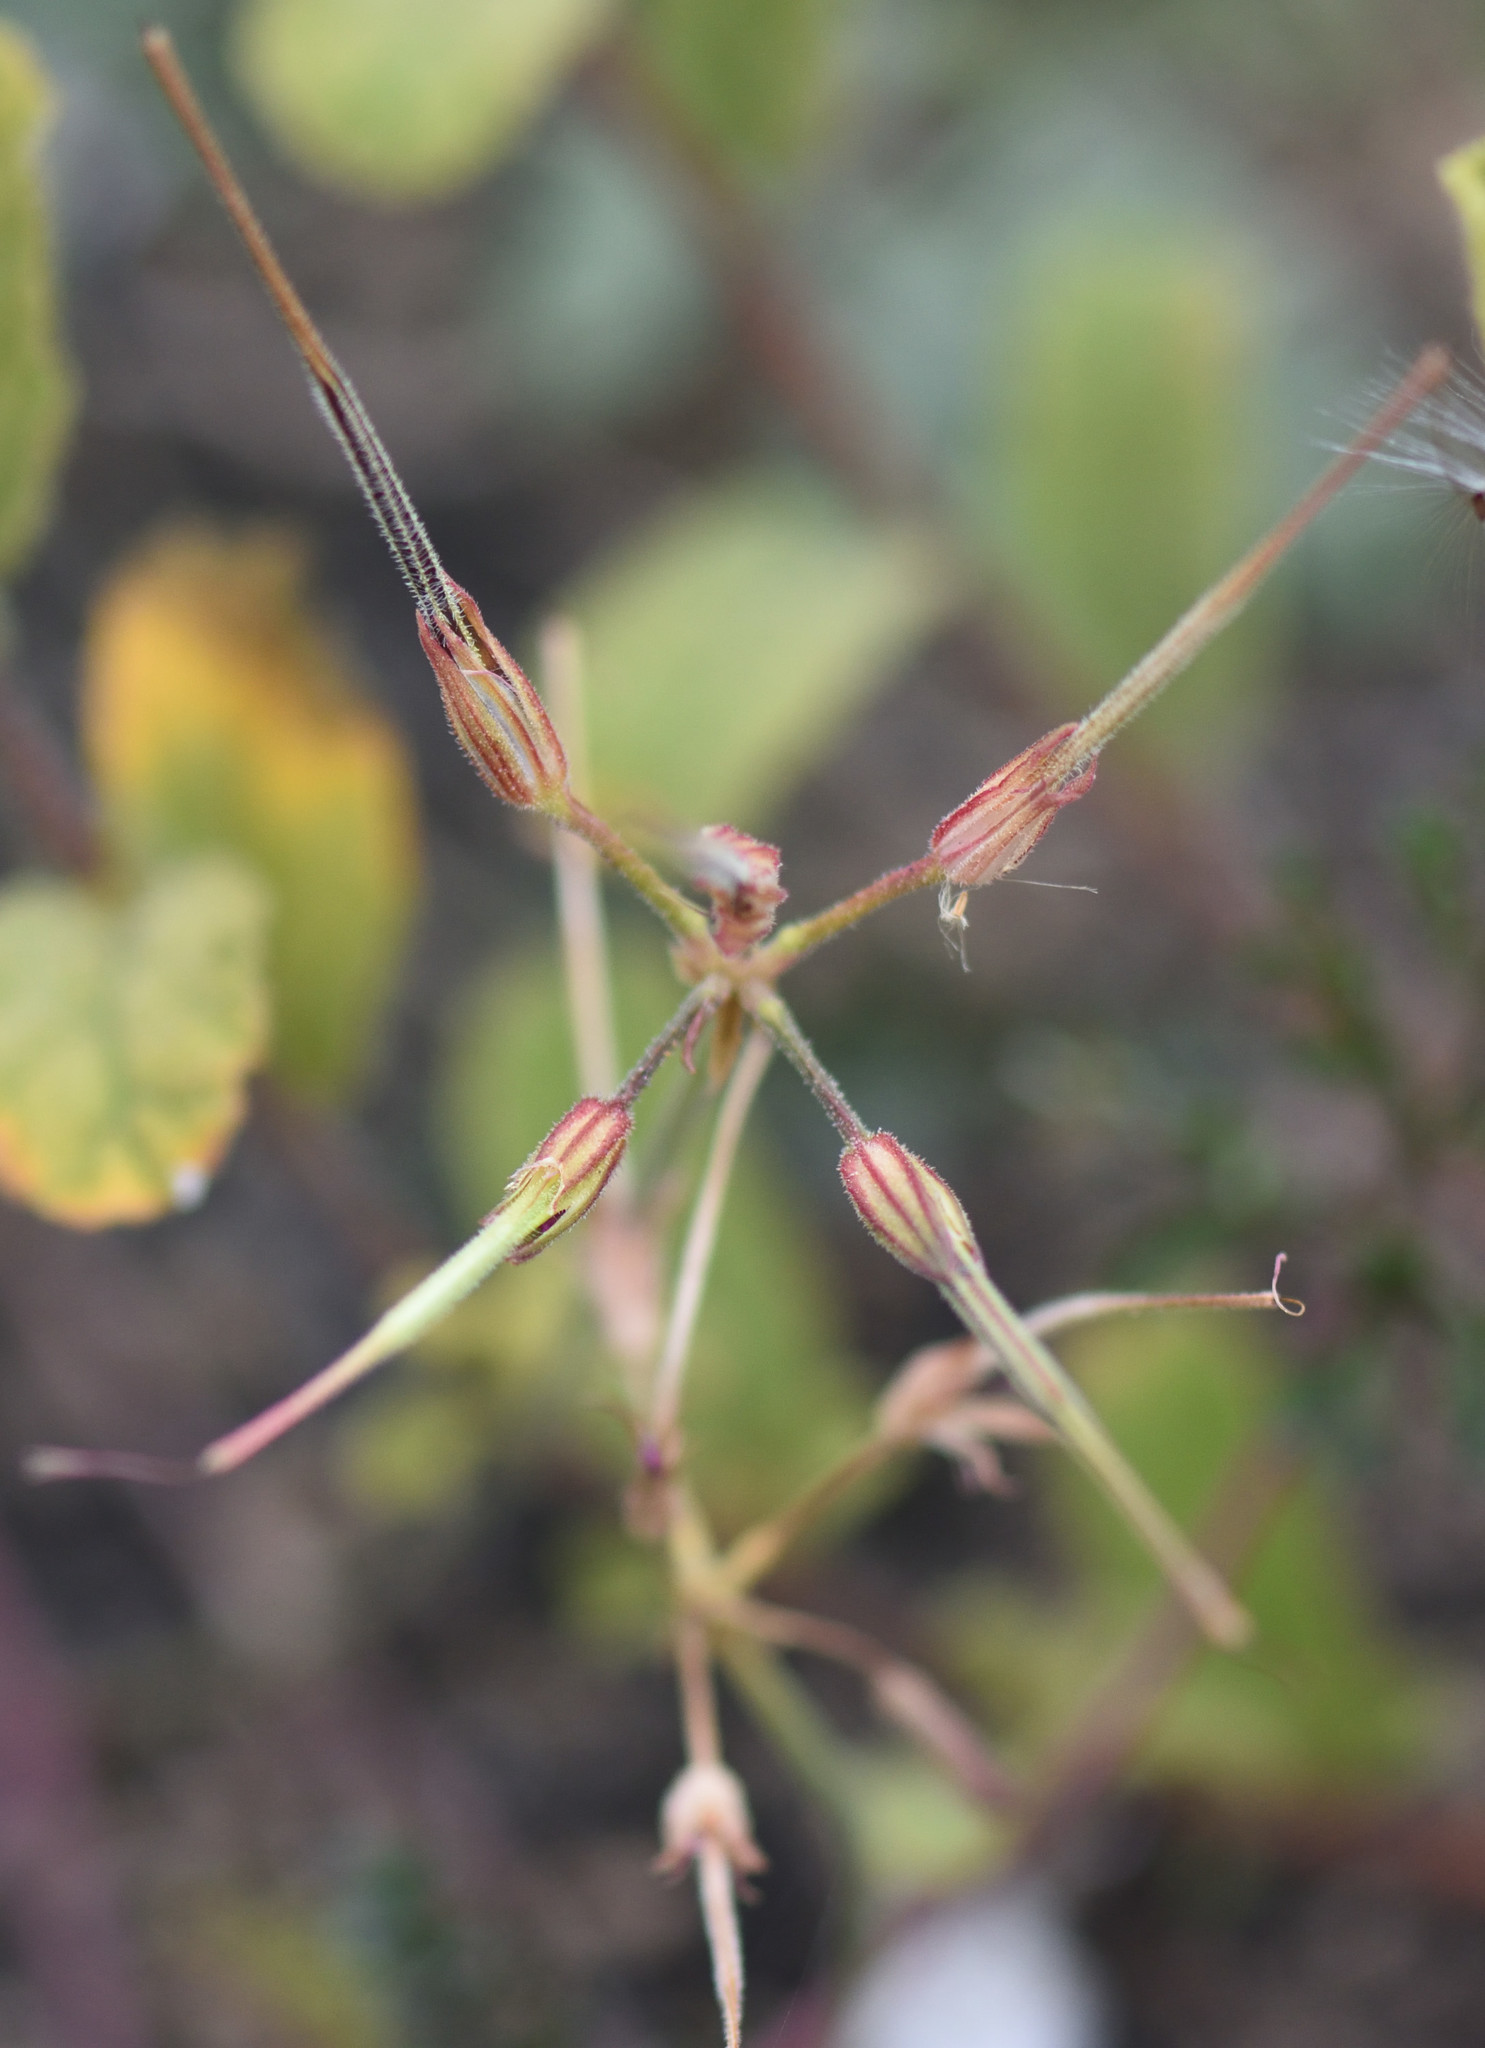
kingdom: Plantae
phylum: Tracheophyta
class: Magnoliopsida
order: Geraniales
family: Geraniaceae
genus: Pelargonium
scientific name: Pelargonium candicans
